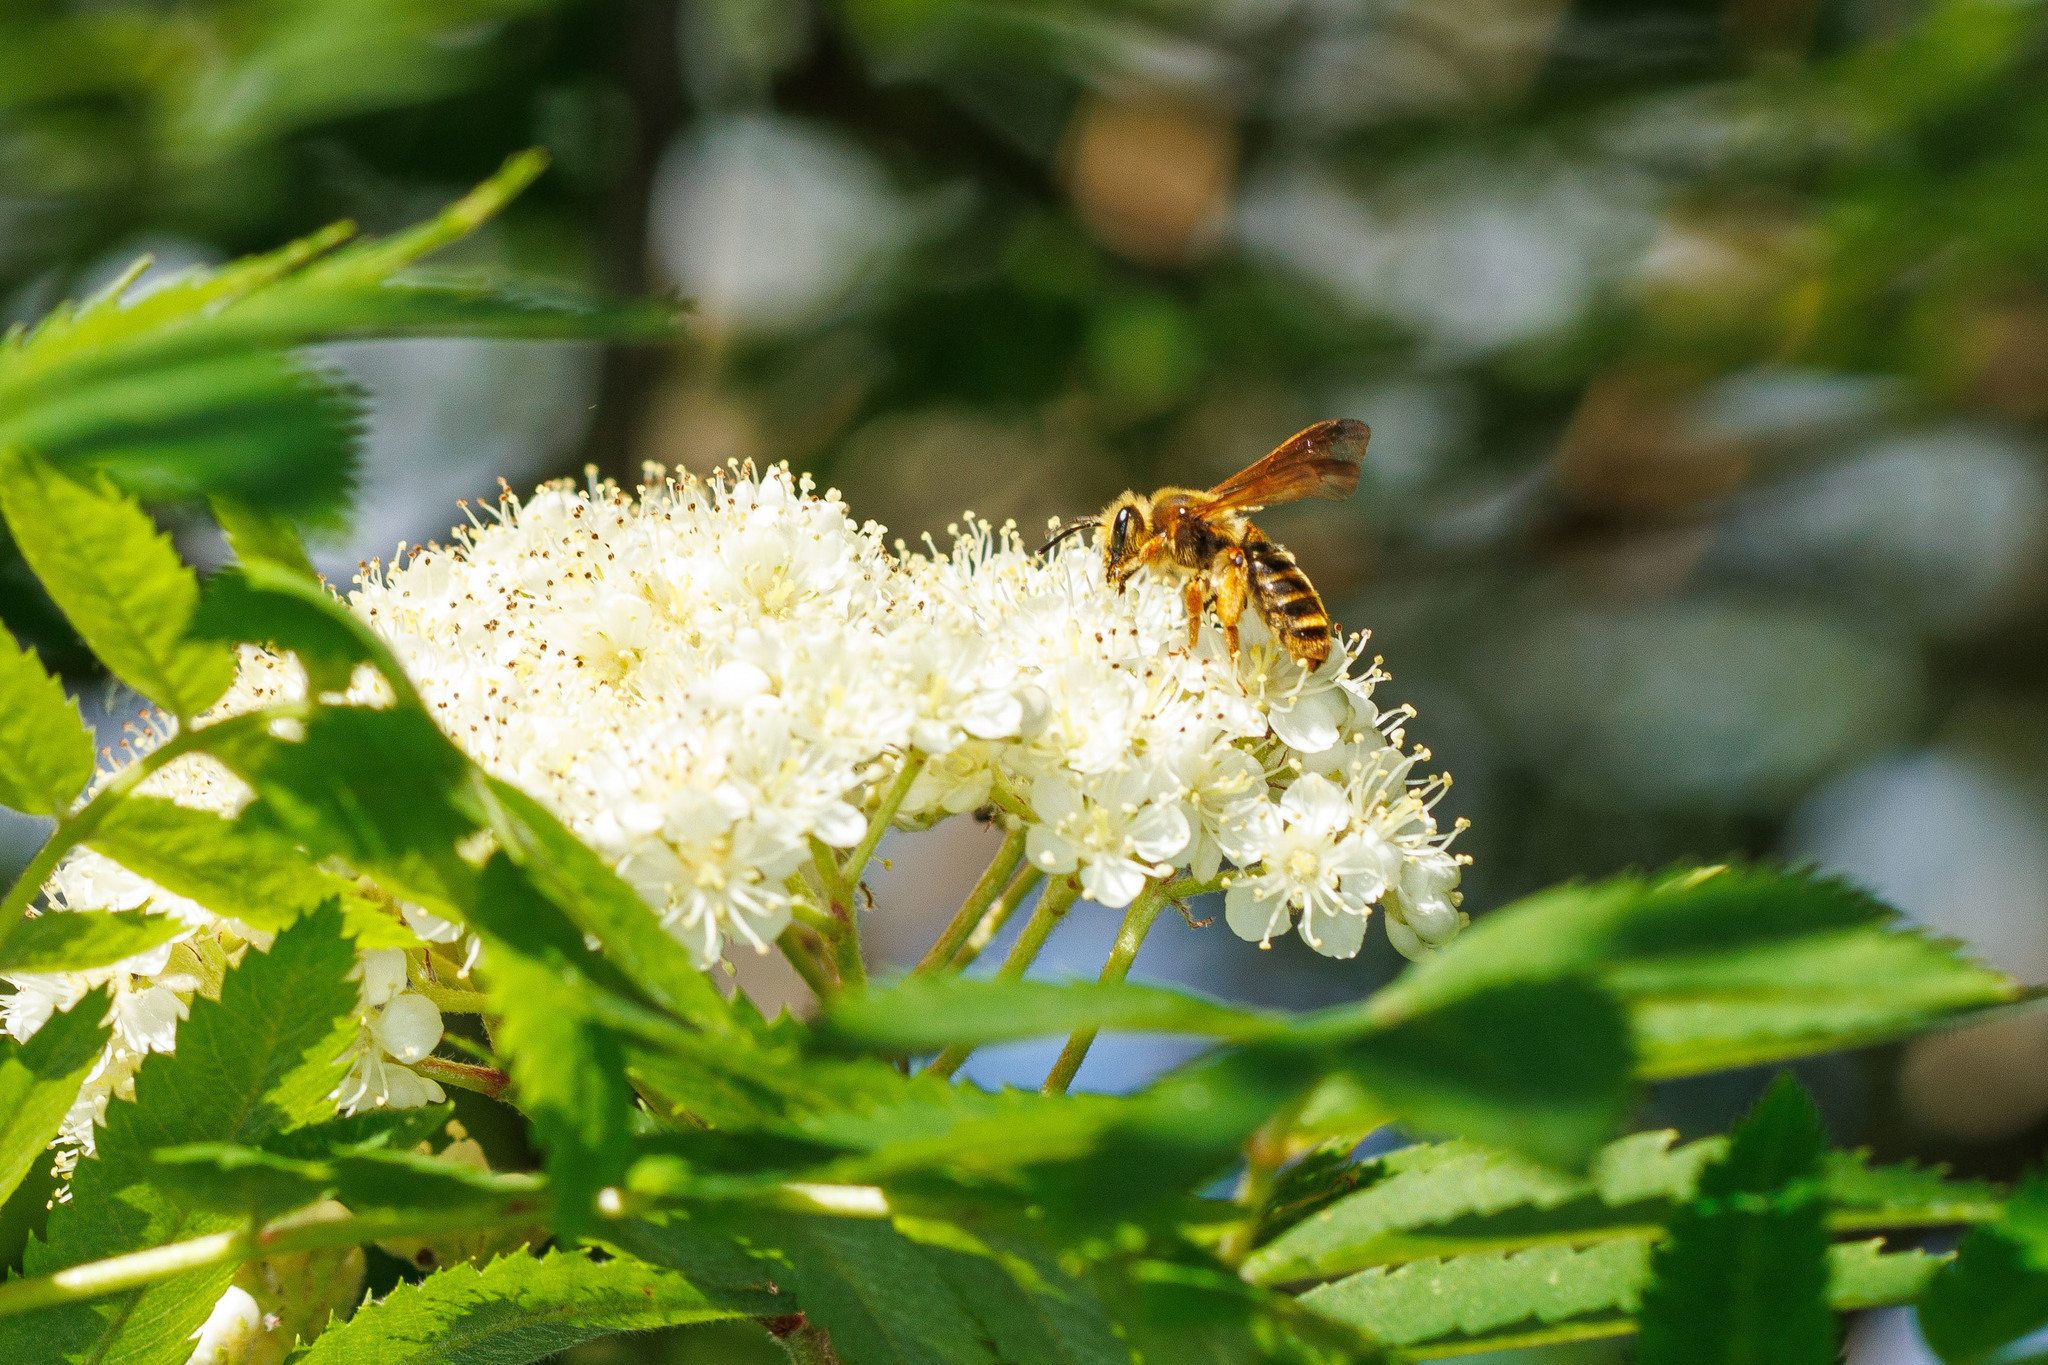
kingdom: Animalia
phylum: Arthropoda
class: Insecta
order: Hymenoptera
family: Andrenidae
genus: Andrena
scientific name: Andrena prunorum
